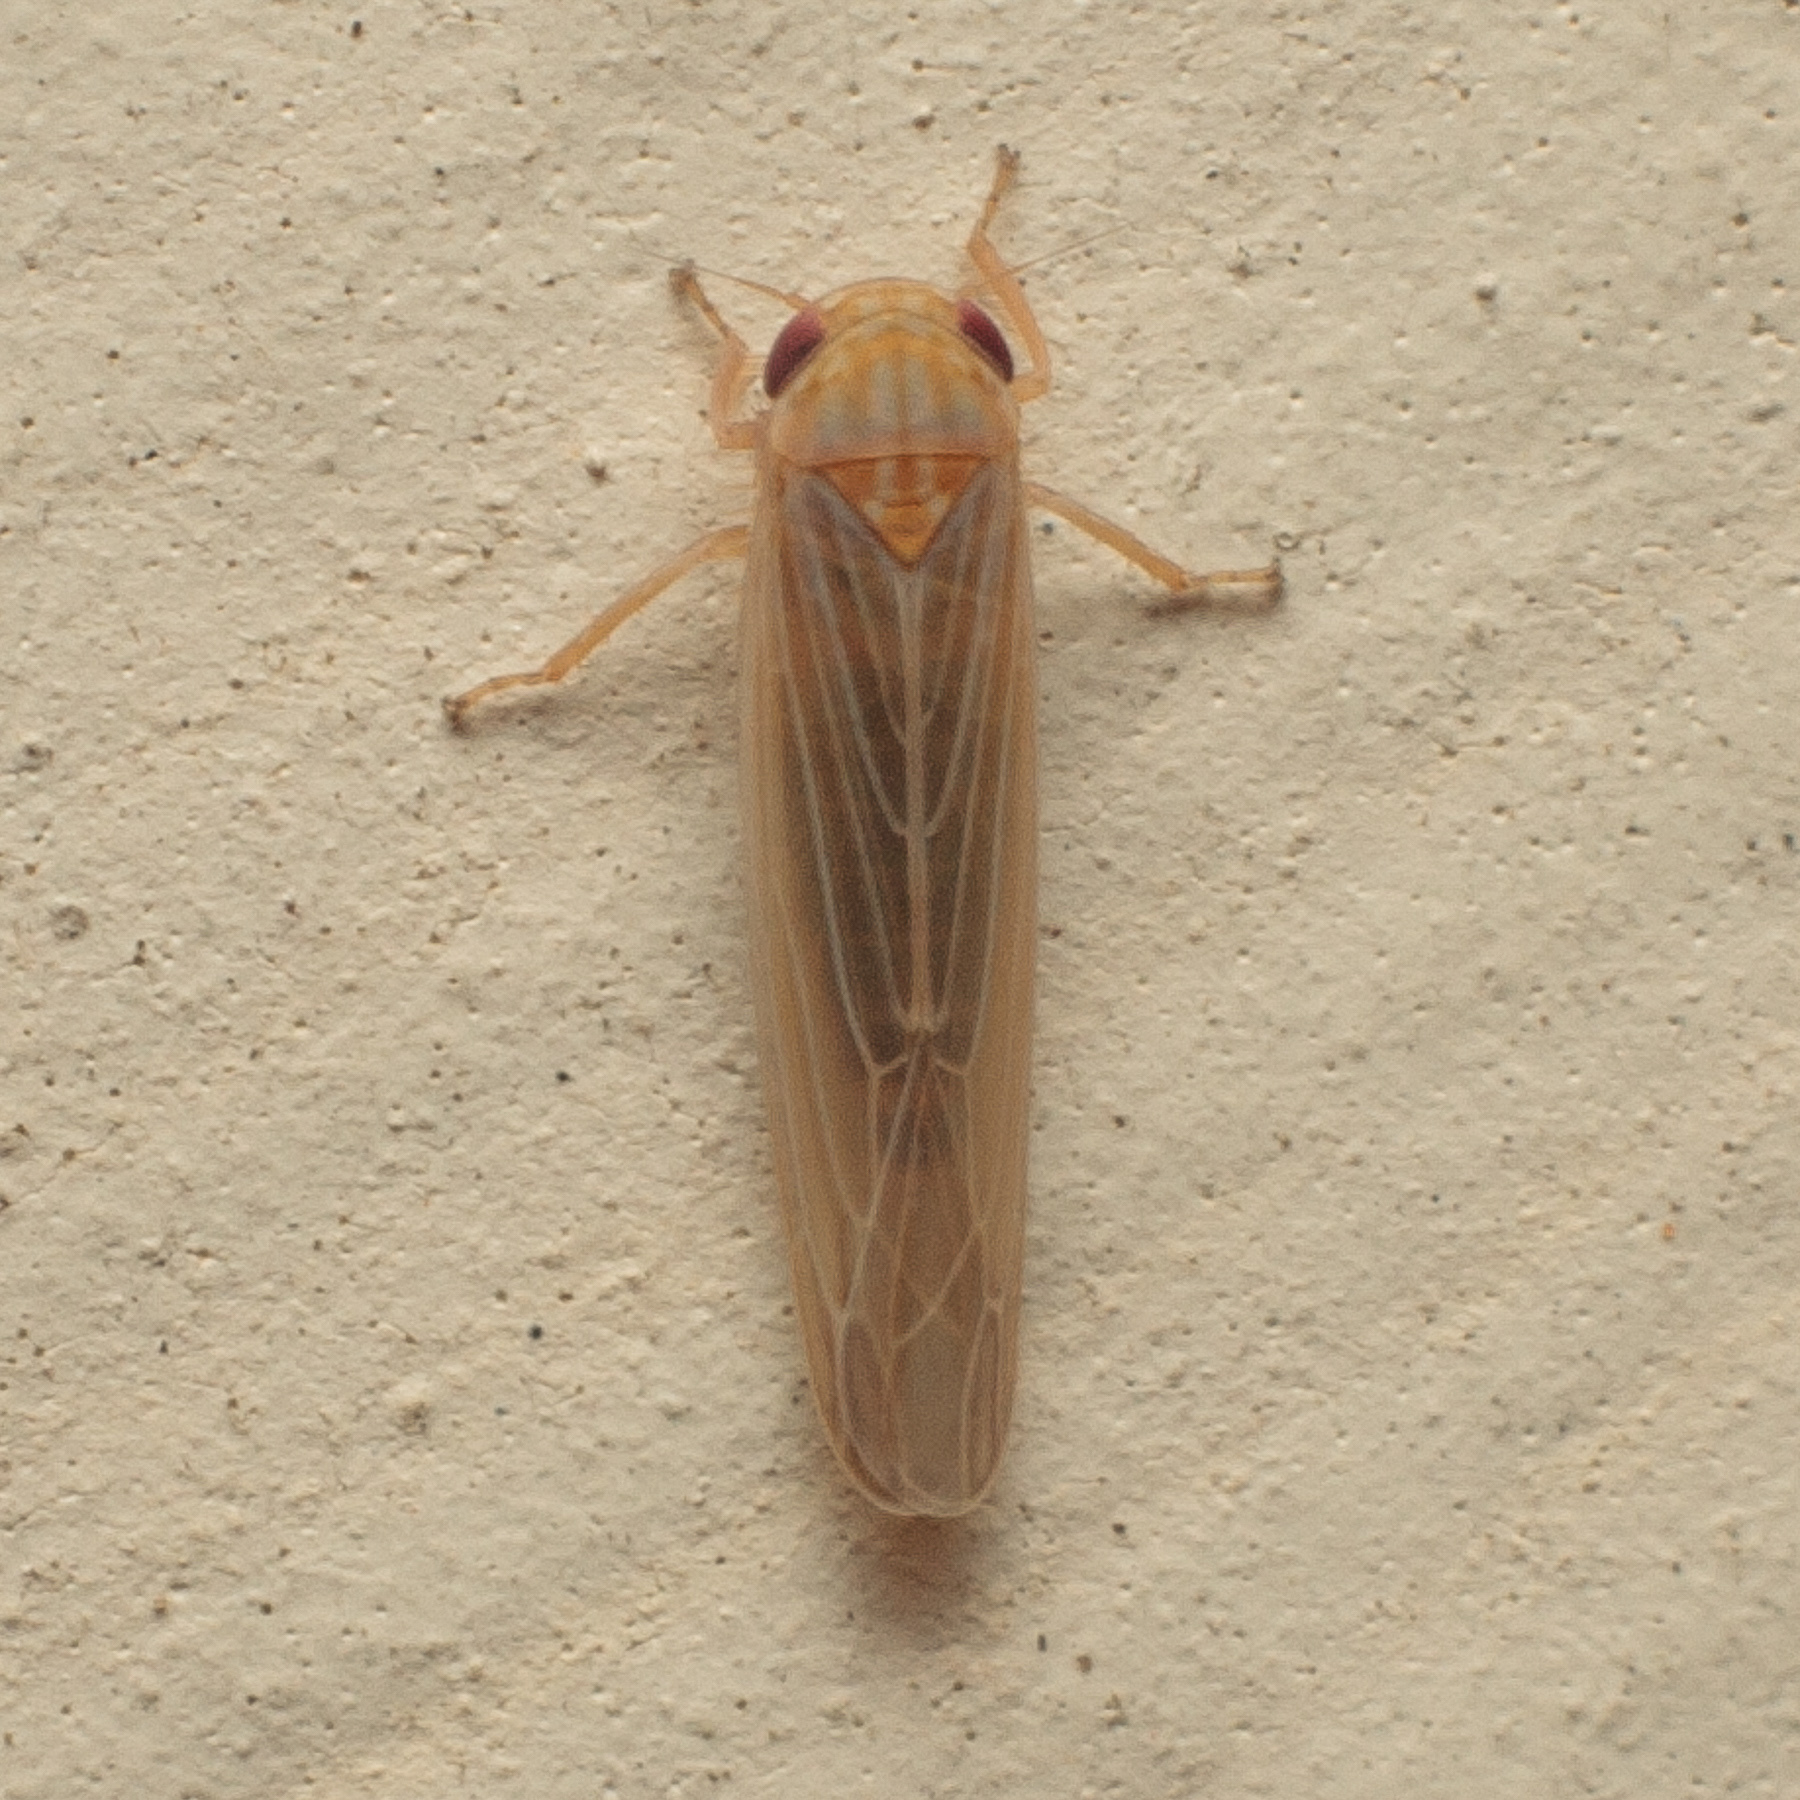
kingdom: Animalia
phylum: Arthropoda
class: Insecta
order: Hemiptera
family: Cicadellidae
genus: Balclutha
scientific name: Balclutha neglecta
